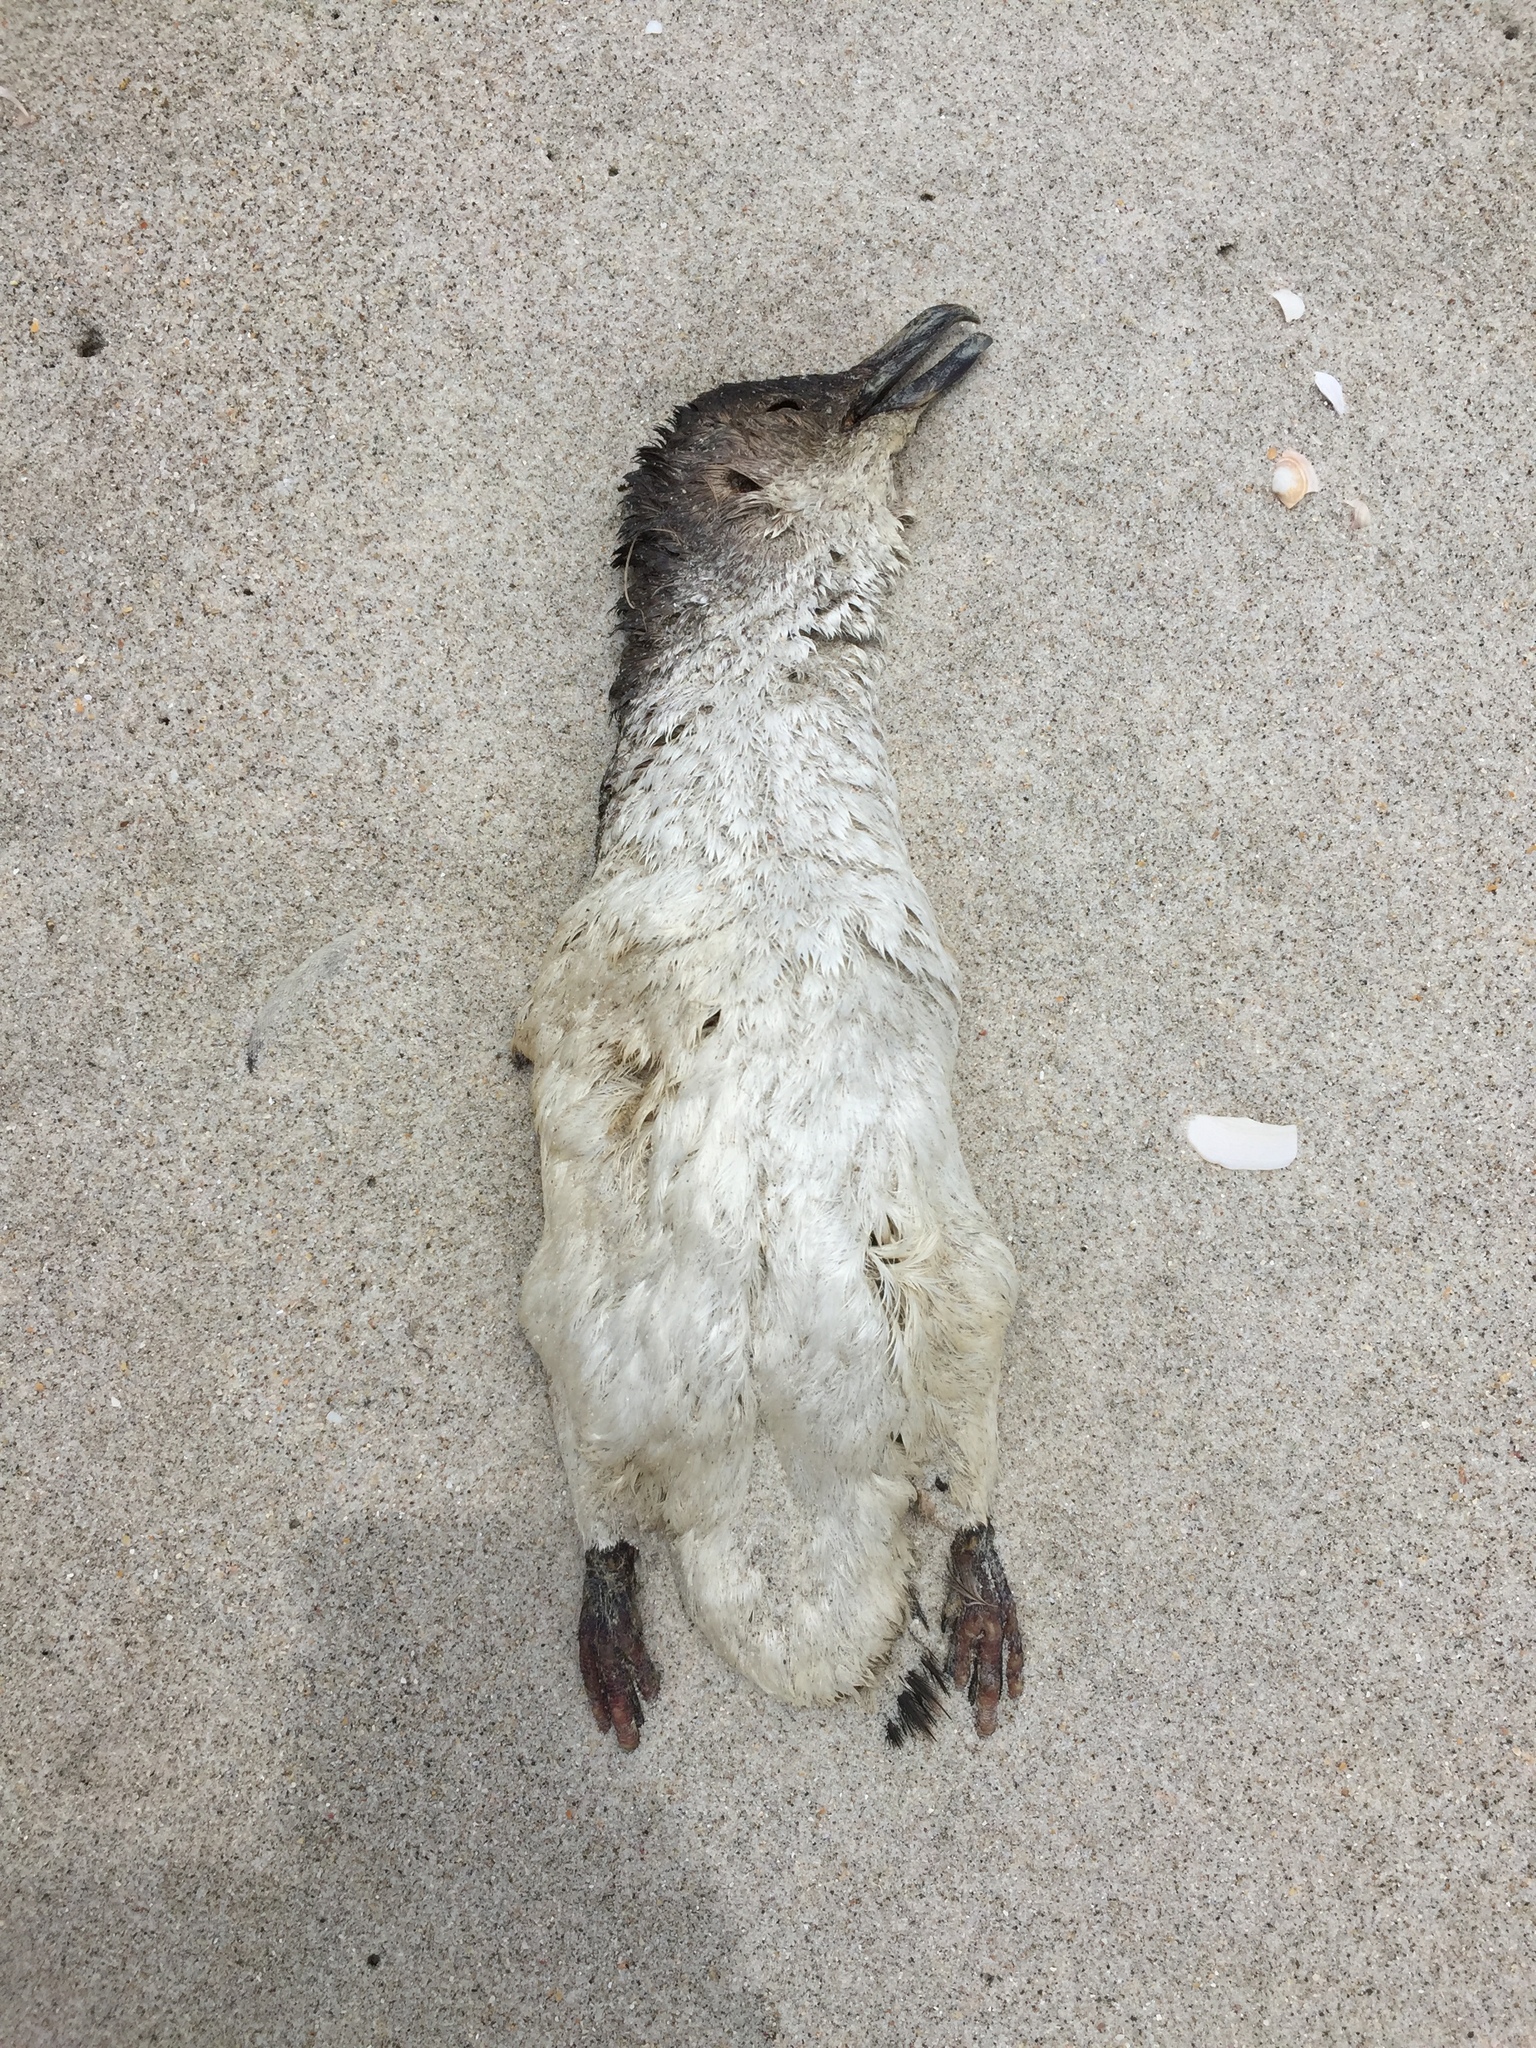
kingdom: Animalia
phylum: Chordata
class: Aves
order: Sphenisciformes
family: Spheniscidae
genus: Eudyptula
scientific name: Eudyptula minor
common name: Little penguin
